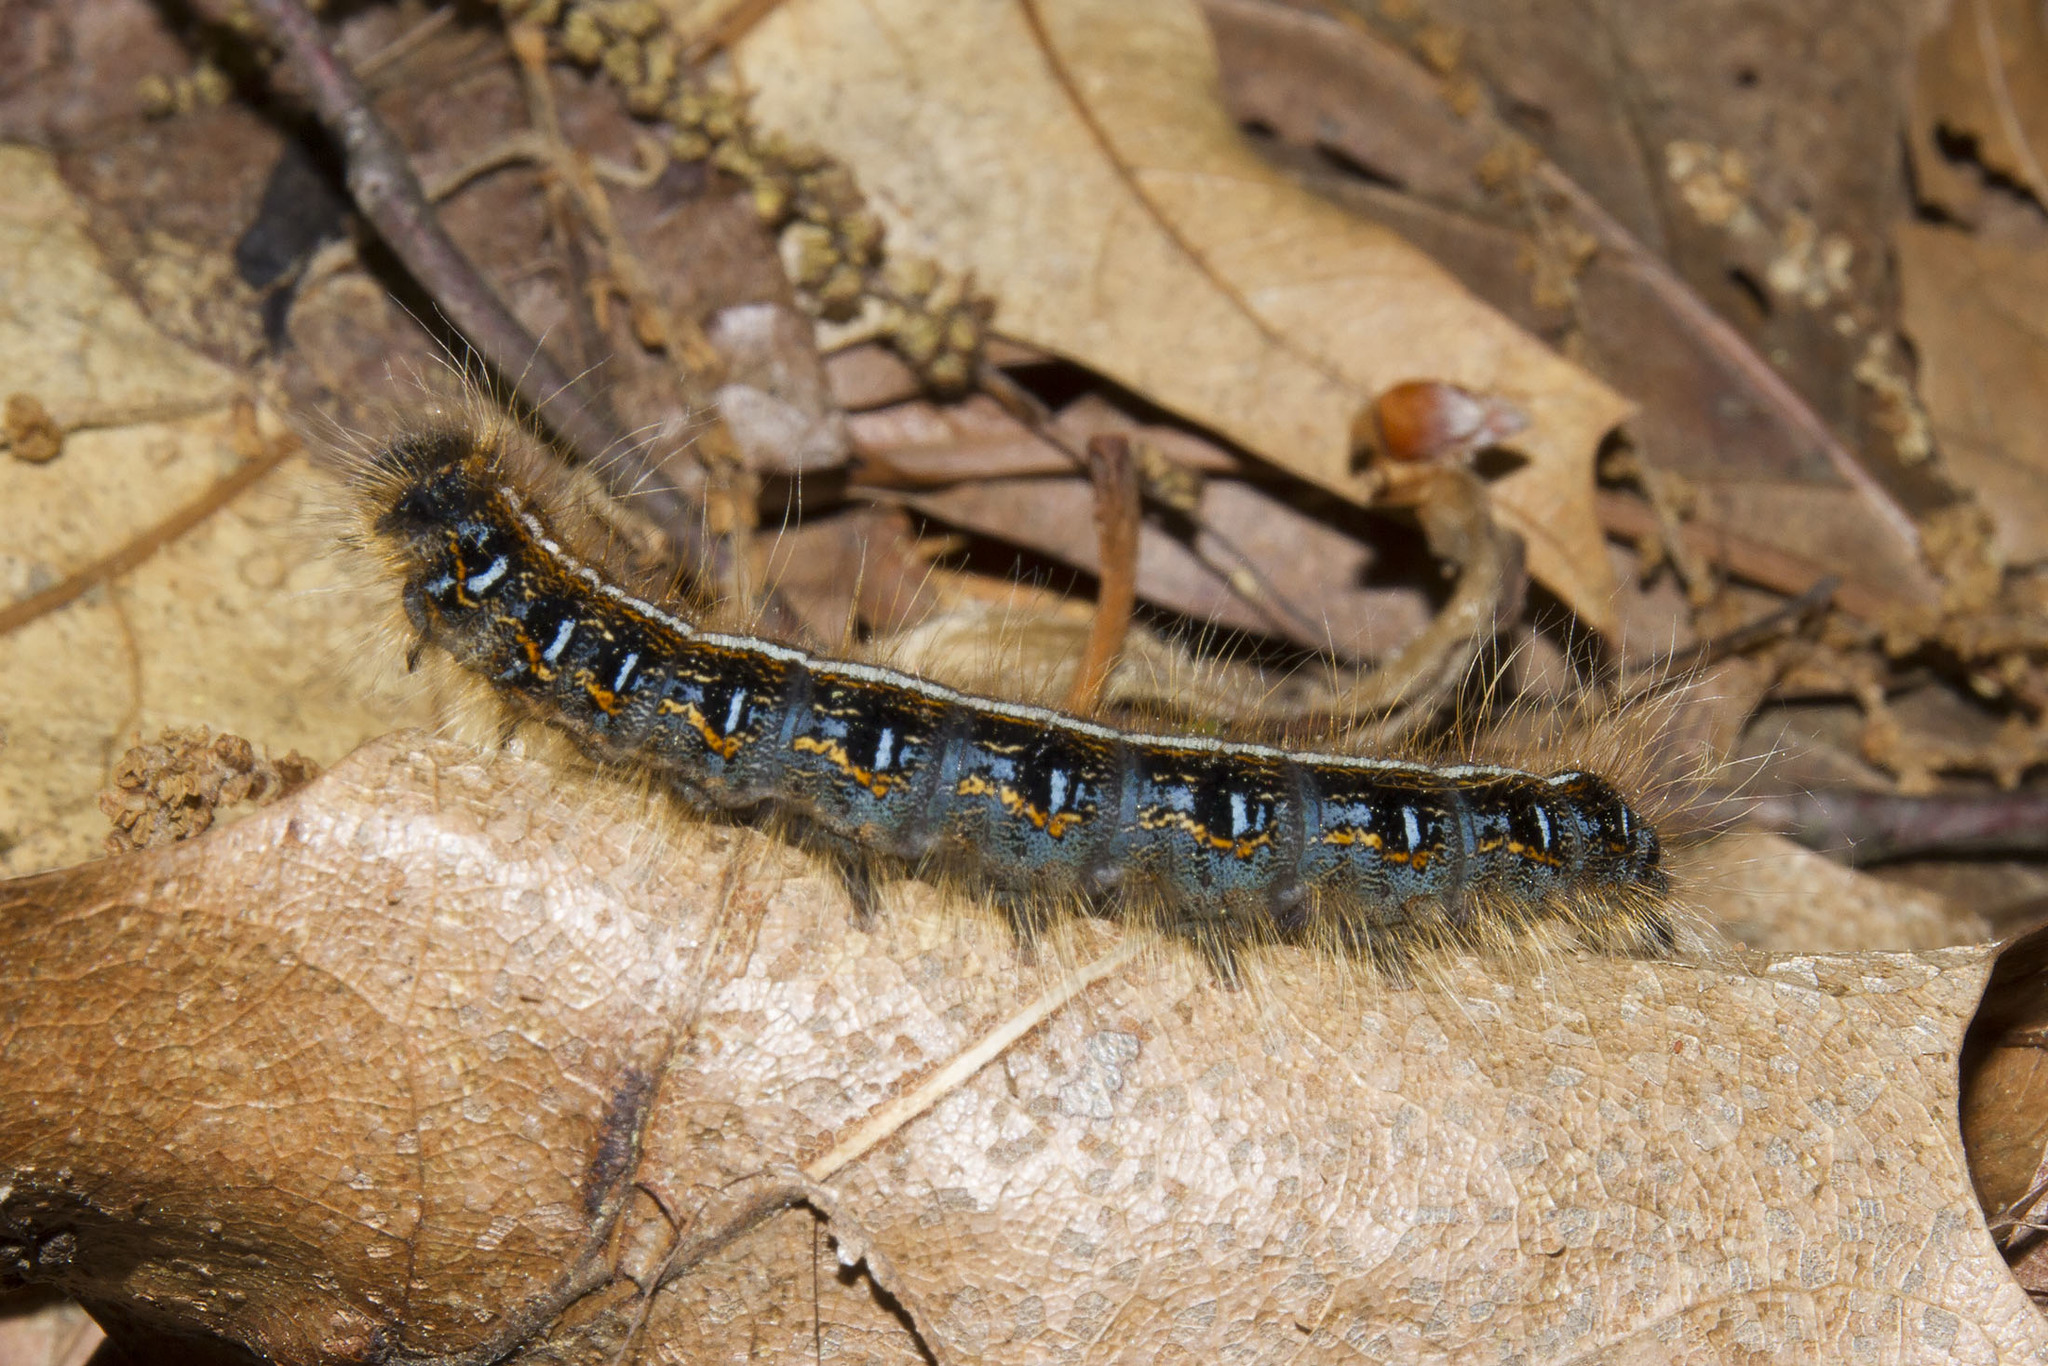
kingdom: Animalia
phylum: Arthropoda
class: Insecta
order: Lepidoptera
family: Lasiocampidae
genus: Malacosoma
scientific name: Malacosoma americana
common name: Eastern tent caterpillar moth
